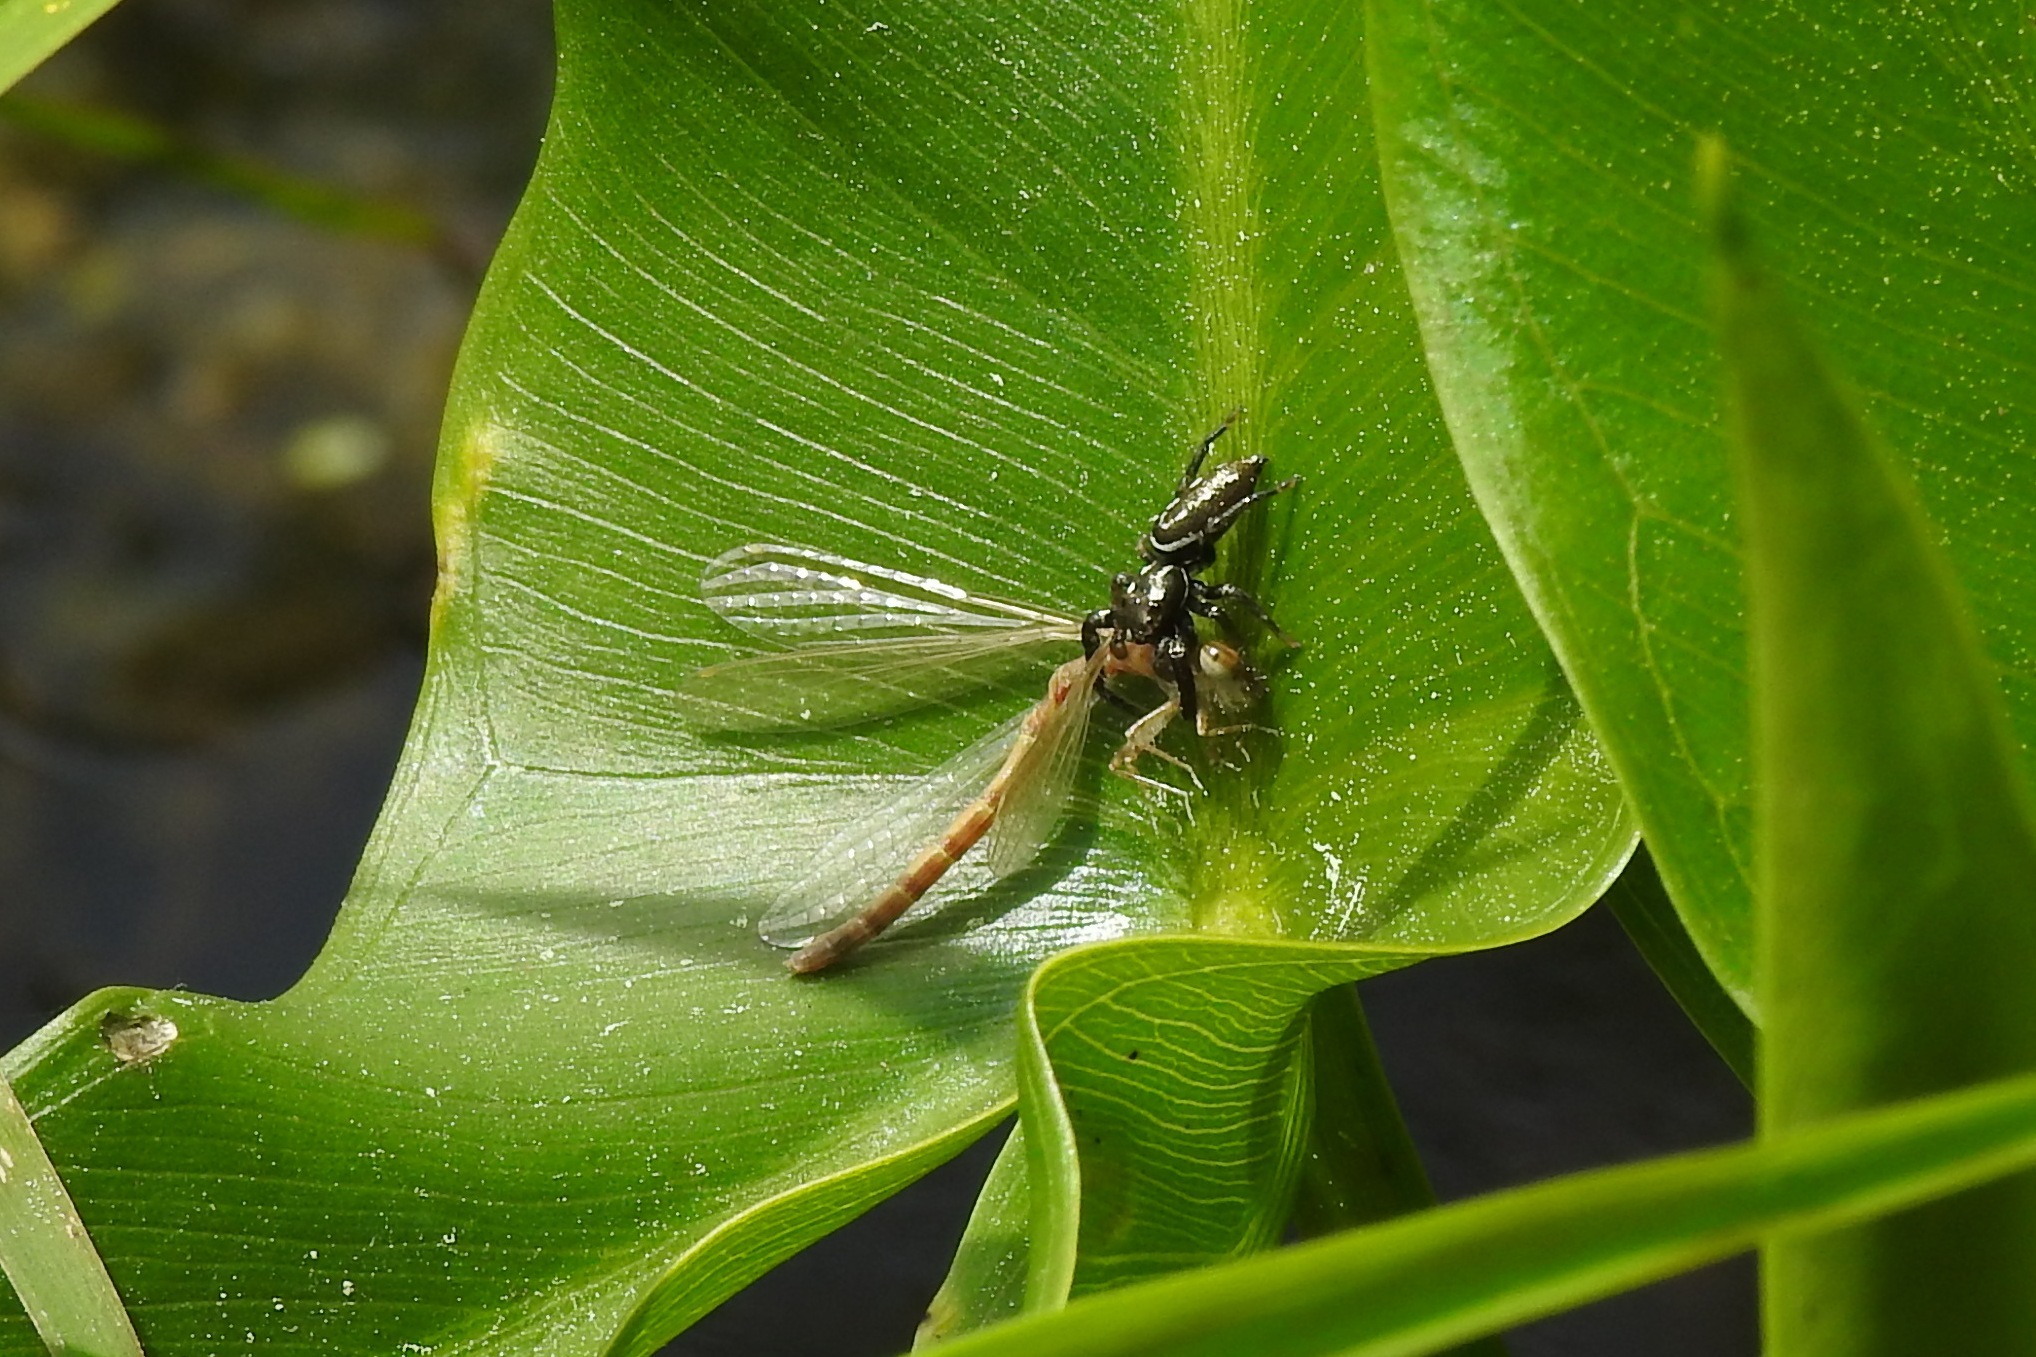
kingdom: Animalia
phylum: Arthropoda
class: Arachnida
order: Araneae
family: Salticidae
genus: Marpissa
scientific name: Marpissa formosa
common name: Short-bellied slender jumping spider
